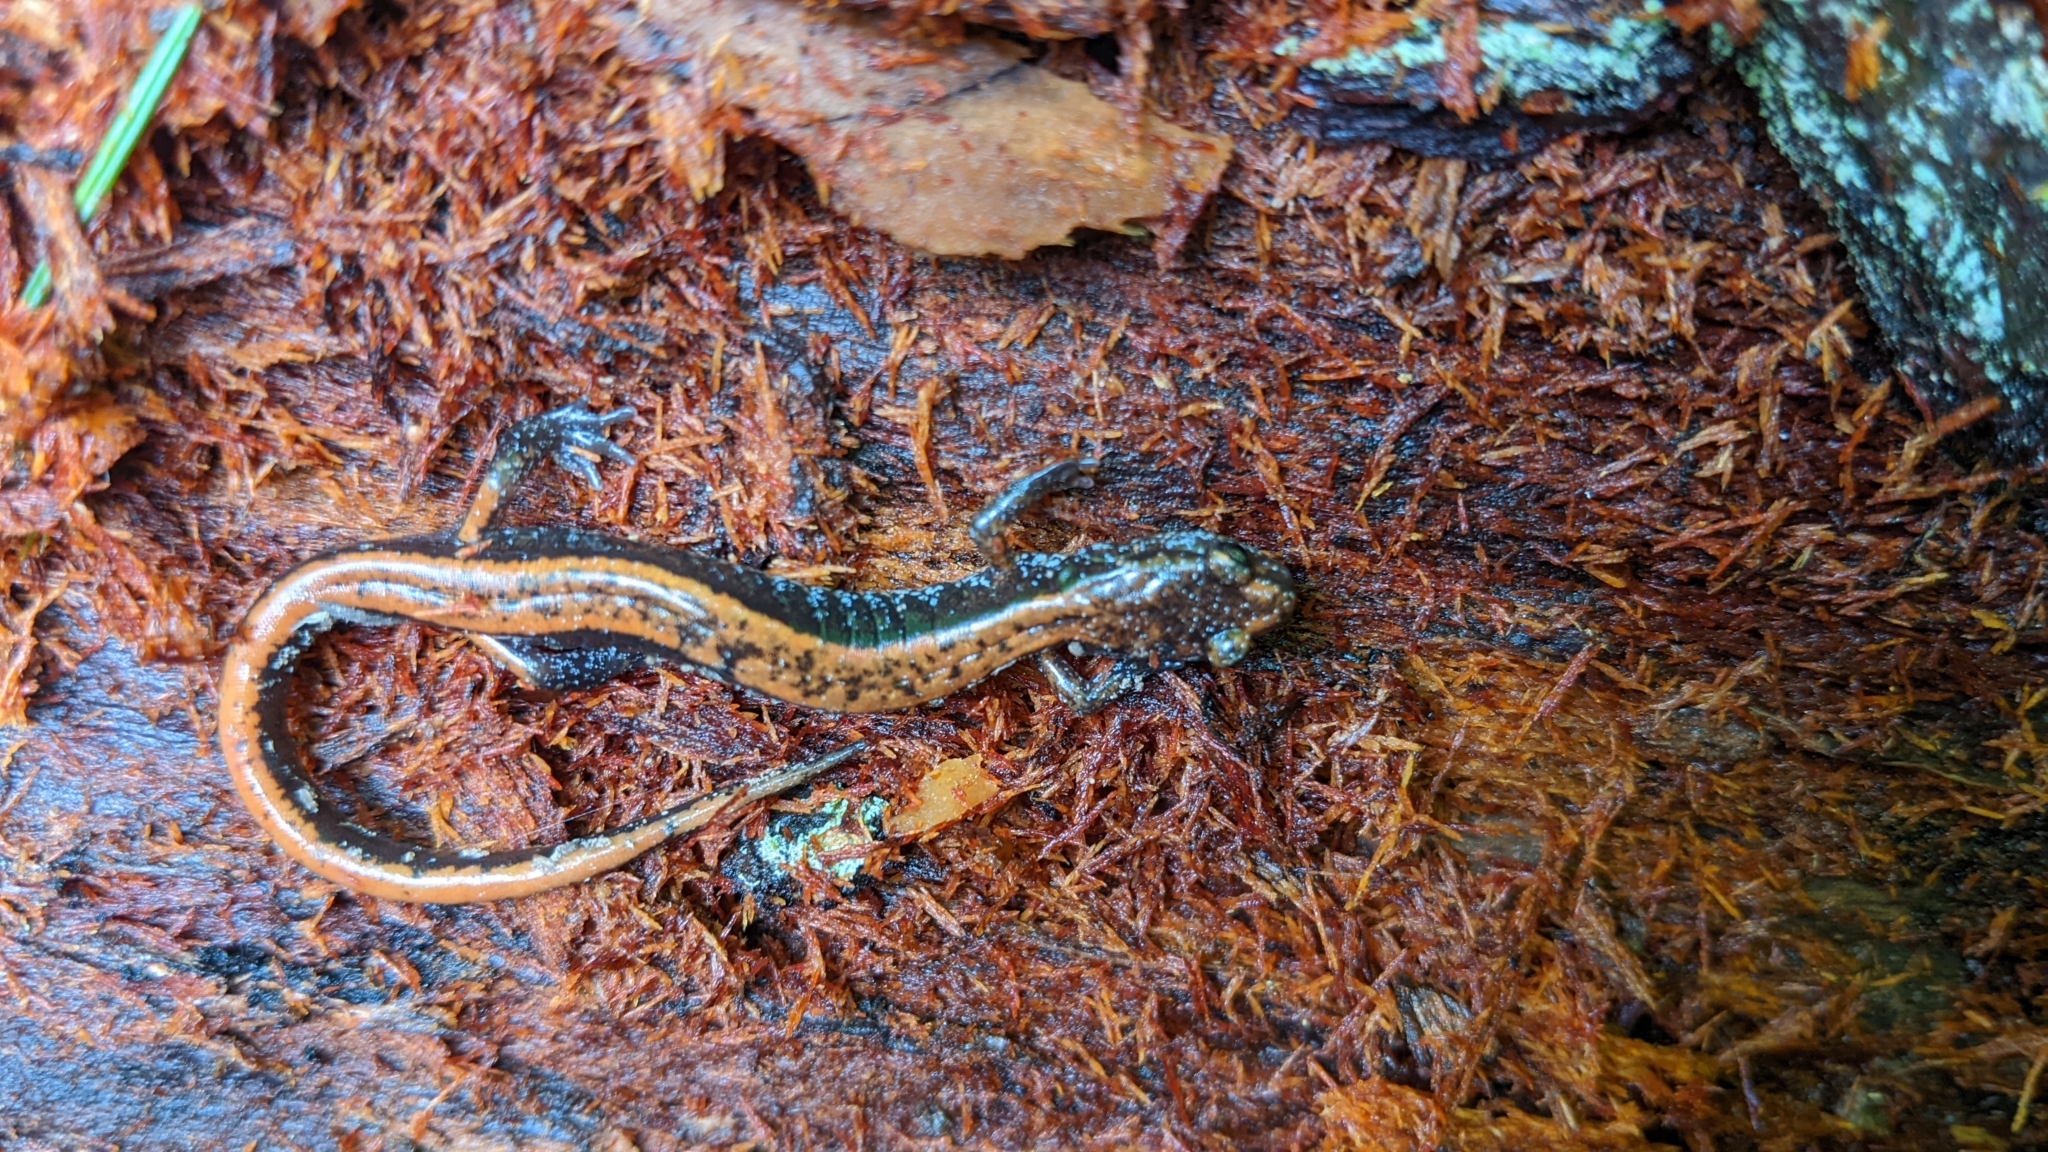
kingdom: Animalia
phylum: Chordata
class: Amphibia
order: Caudata
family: Plethodontidae
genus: Plethodon
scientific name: Plethodon vehiculum
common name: Western red-backed salamander
